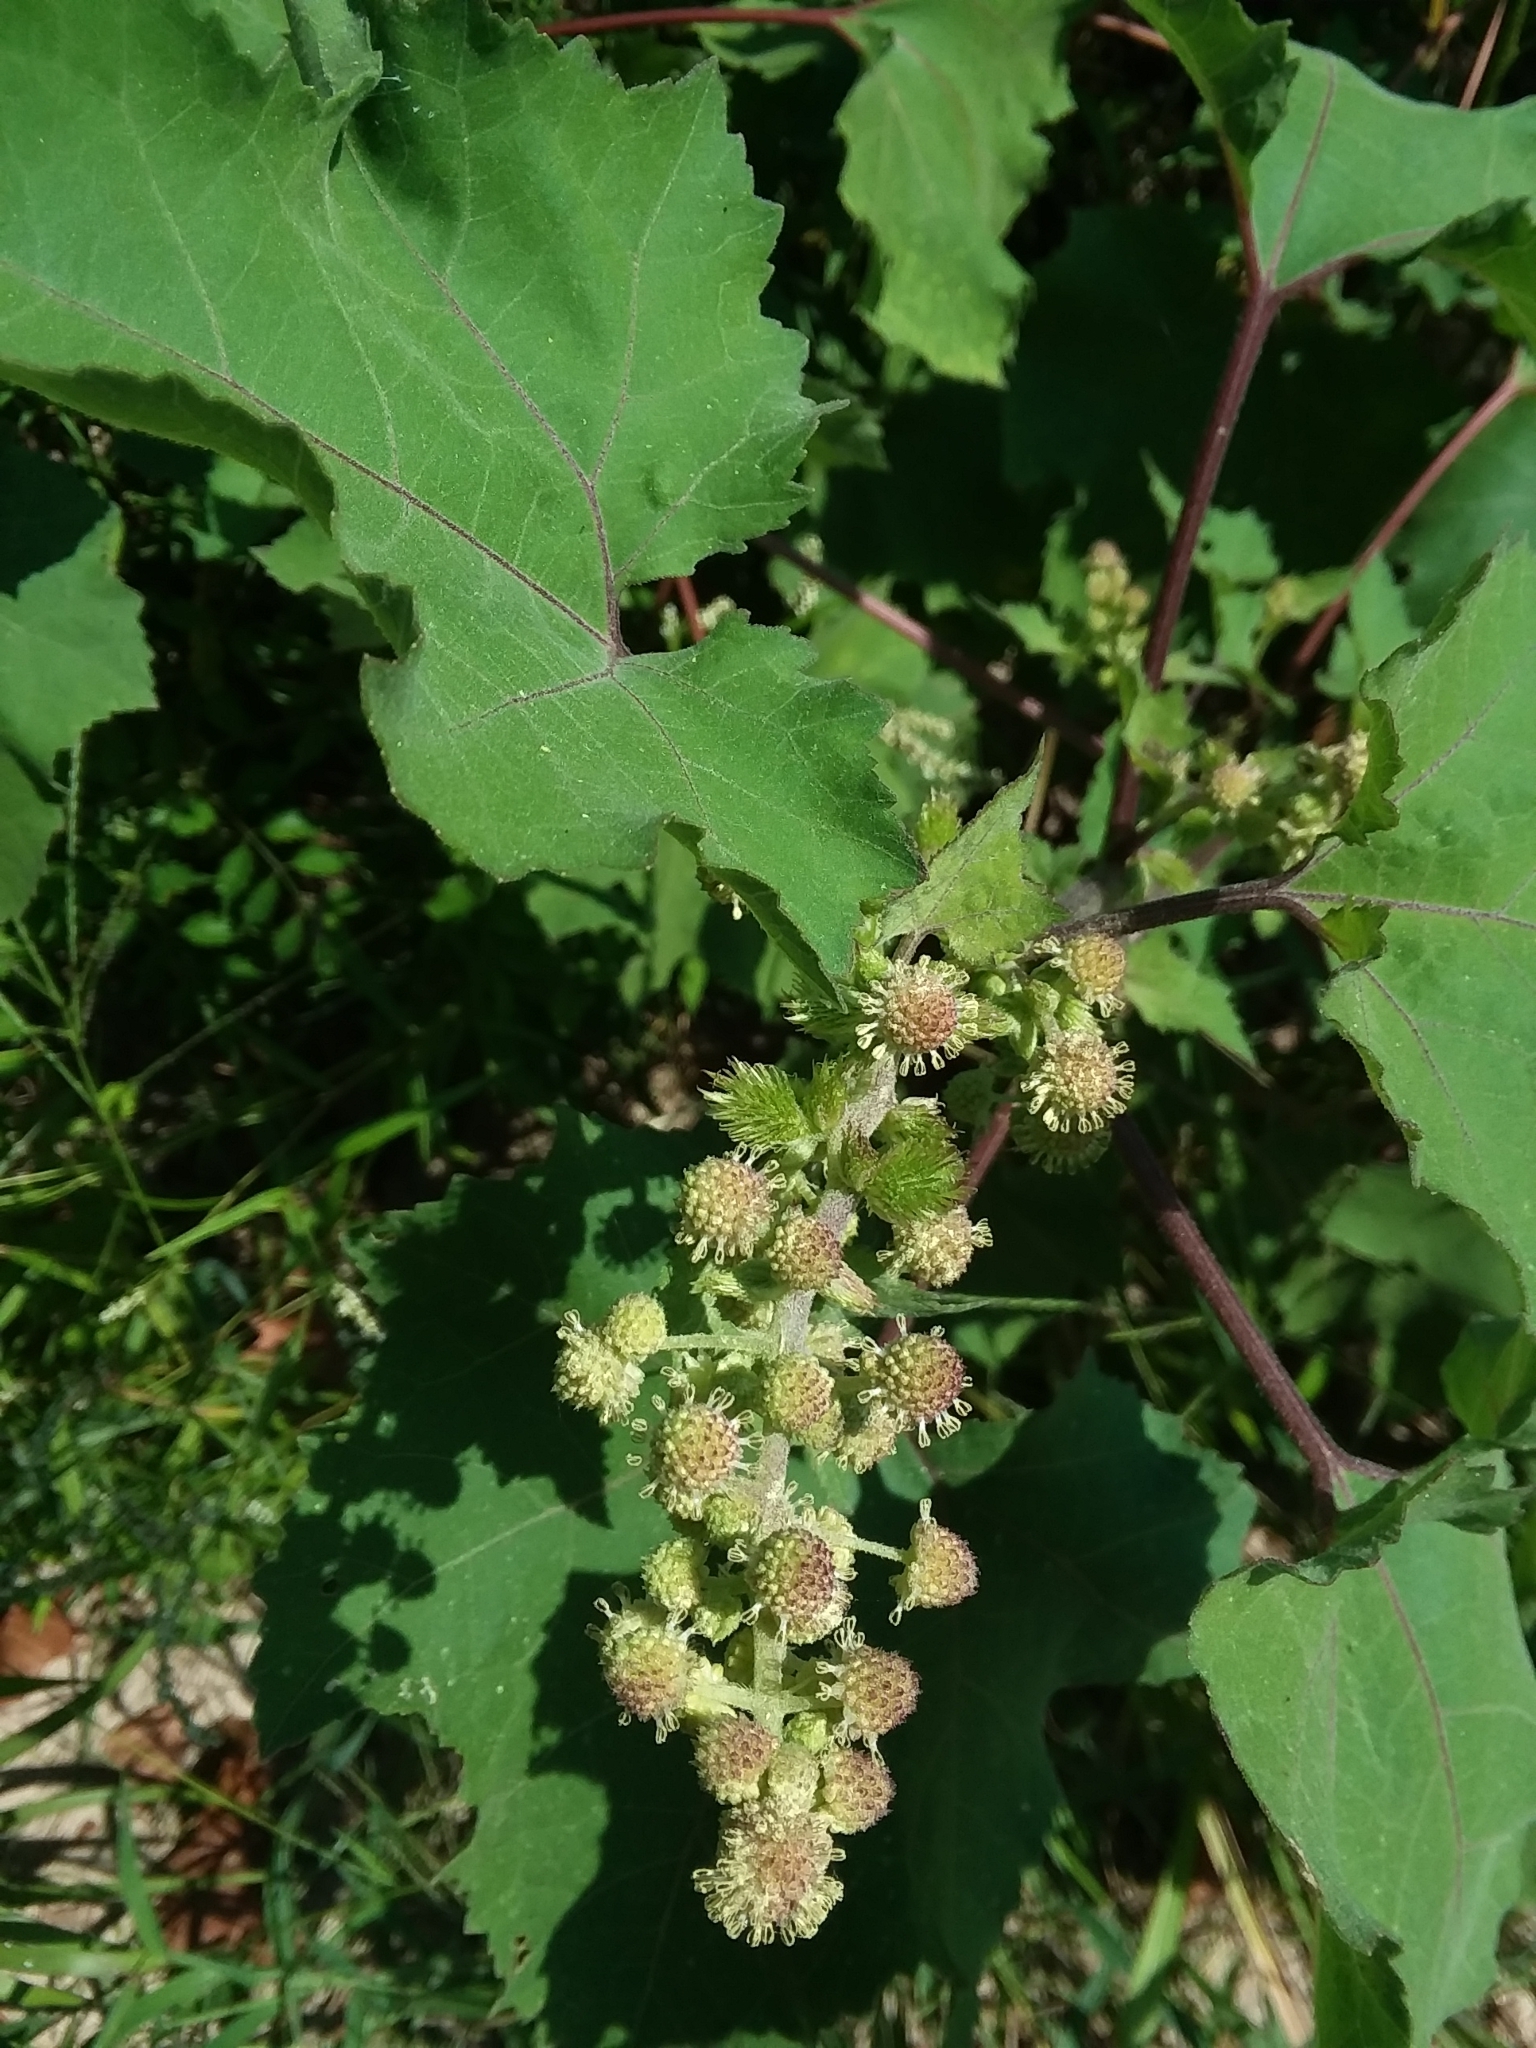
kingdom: Plantae
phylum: Tracheophyta
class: Magnoliopsida
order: Asterales
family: Asteraceae
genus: Xanthium
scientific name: Xanthium strumarium
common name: Rough cocklebur
